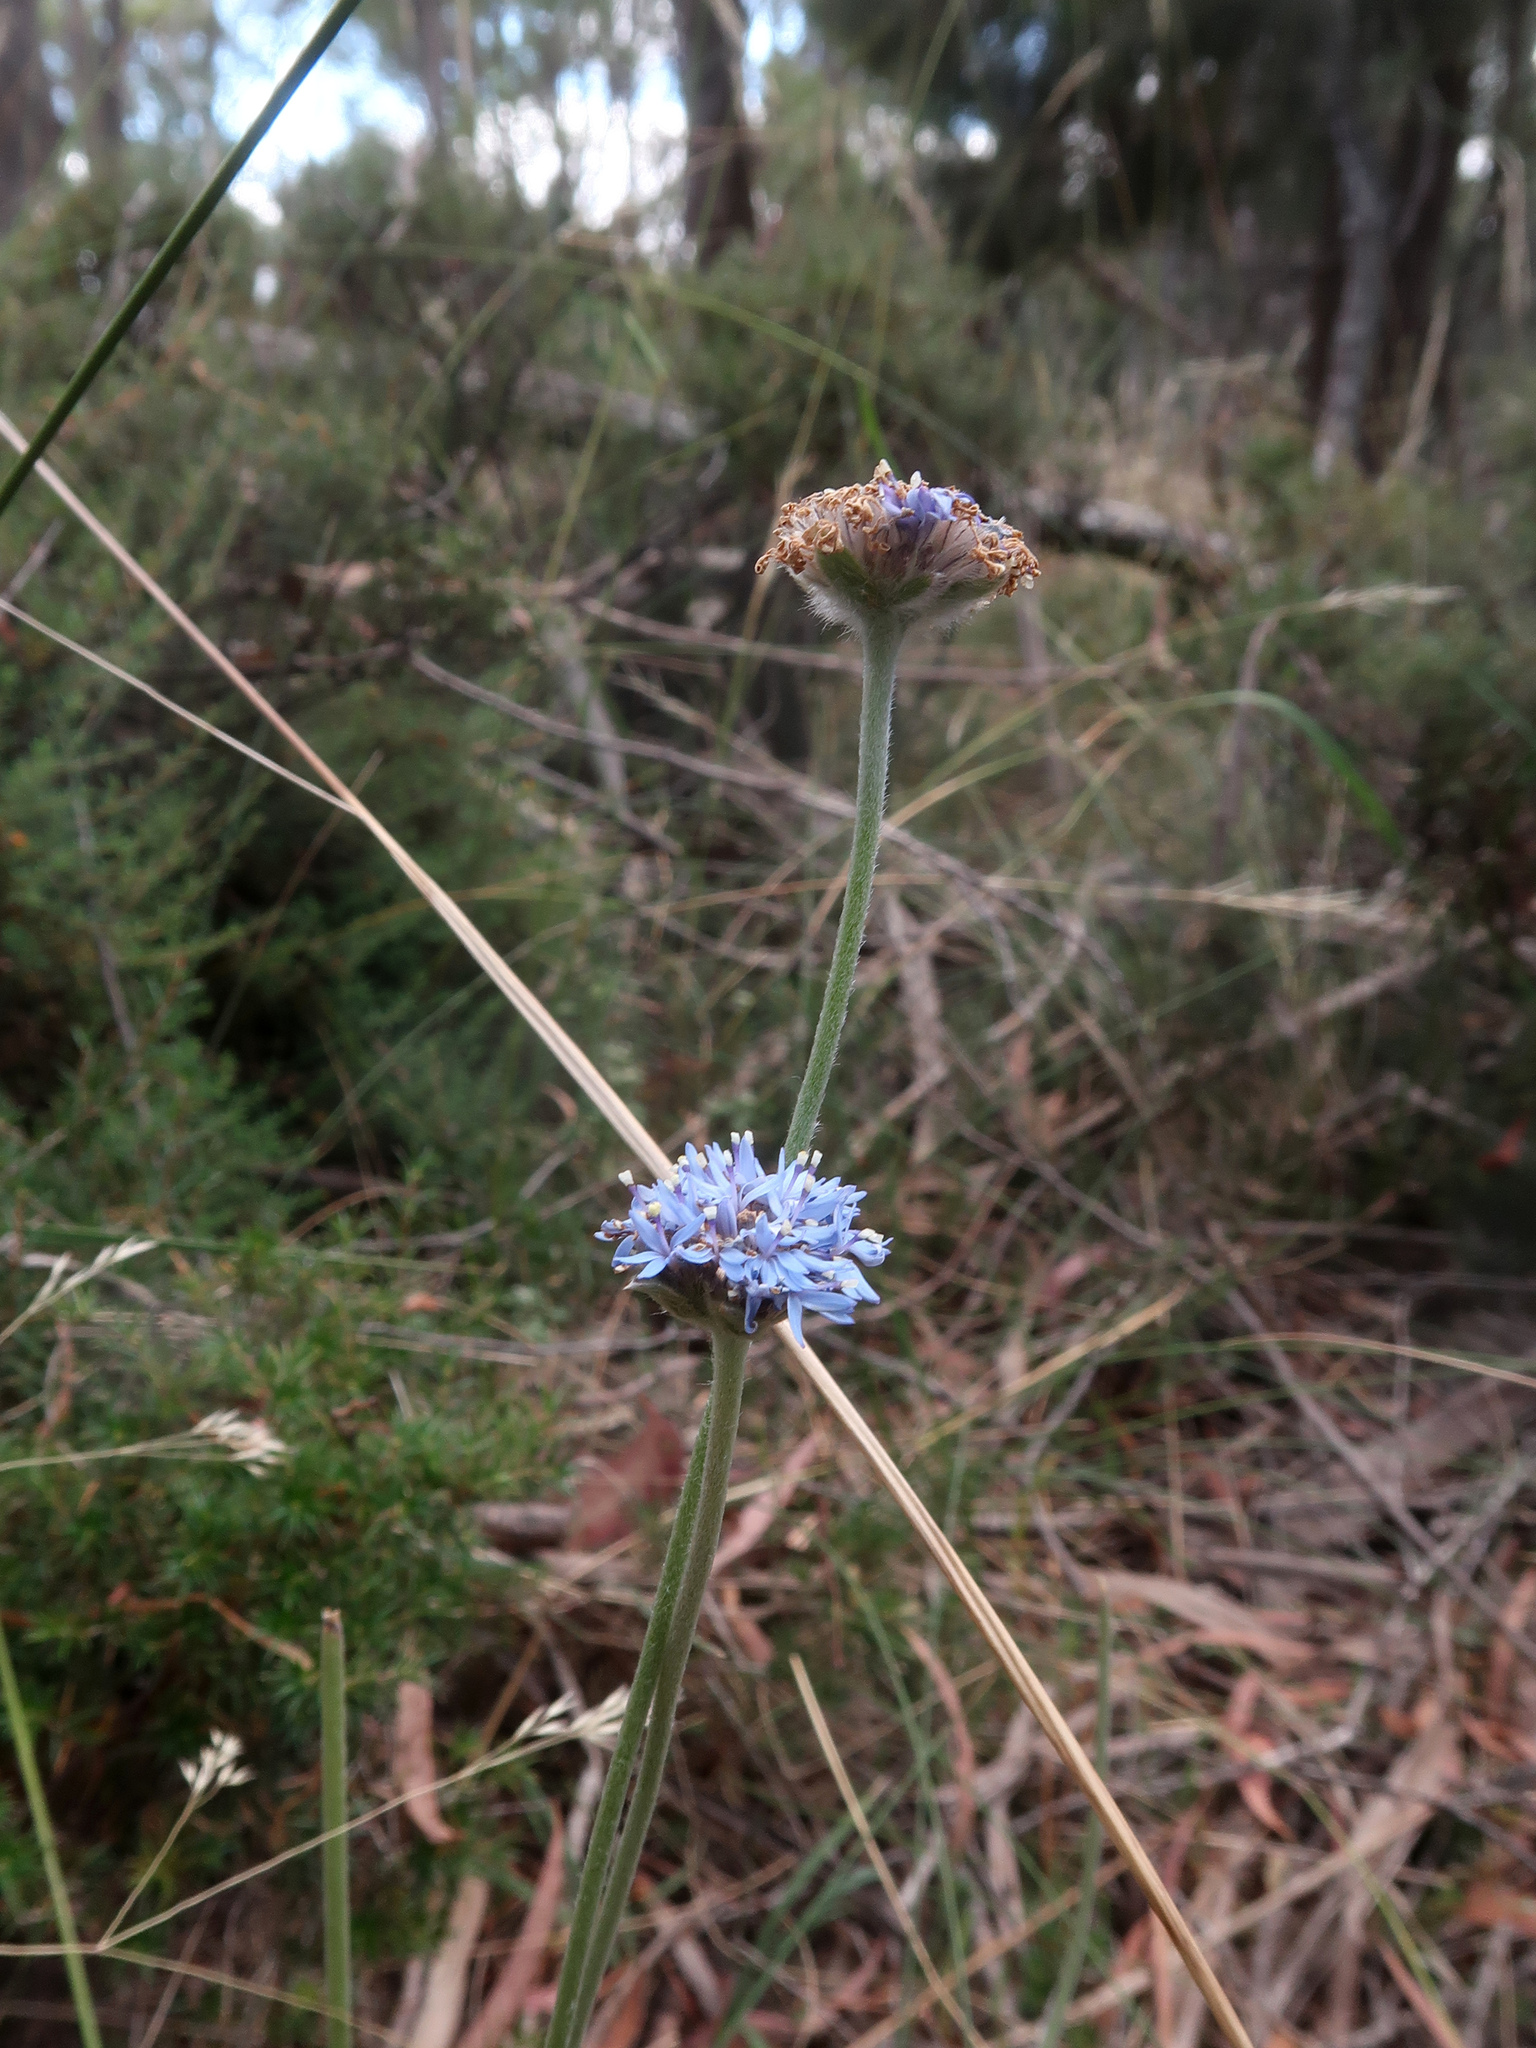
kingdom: Plantae
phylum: Tracheophyta
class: Magnoliopsida
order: Asterales
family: Goodeniaceae
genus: Brunonia
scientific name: Brunonia australis
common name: Blue pincushion
